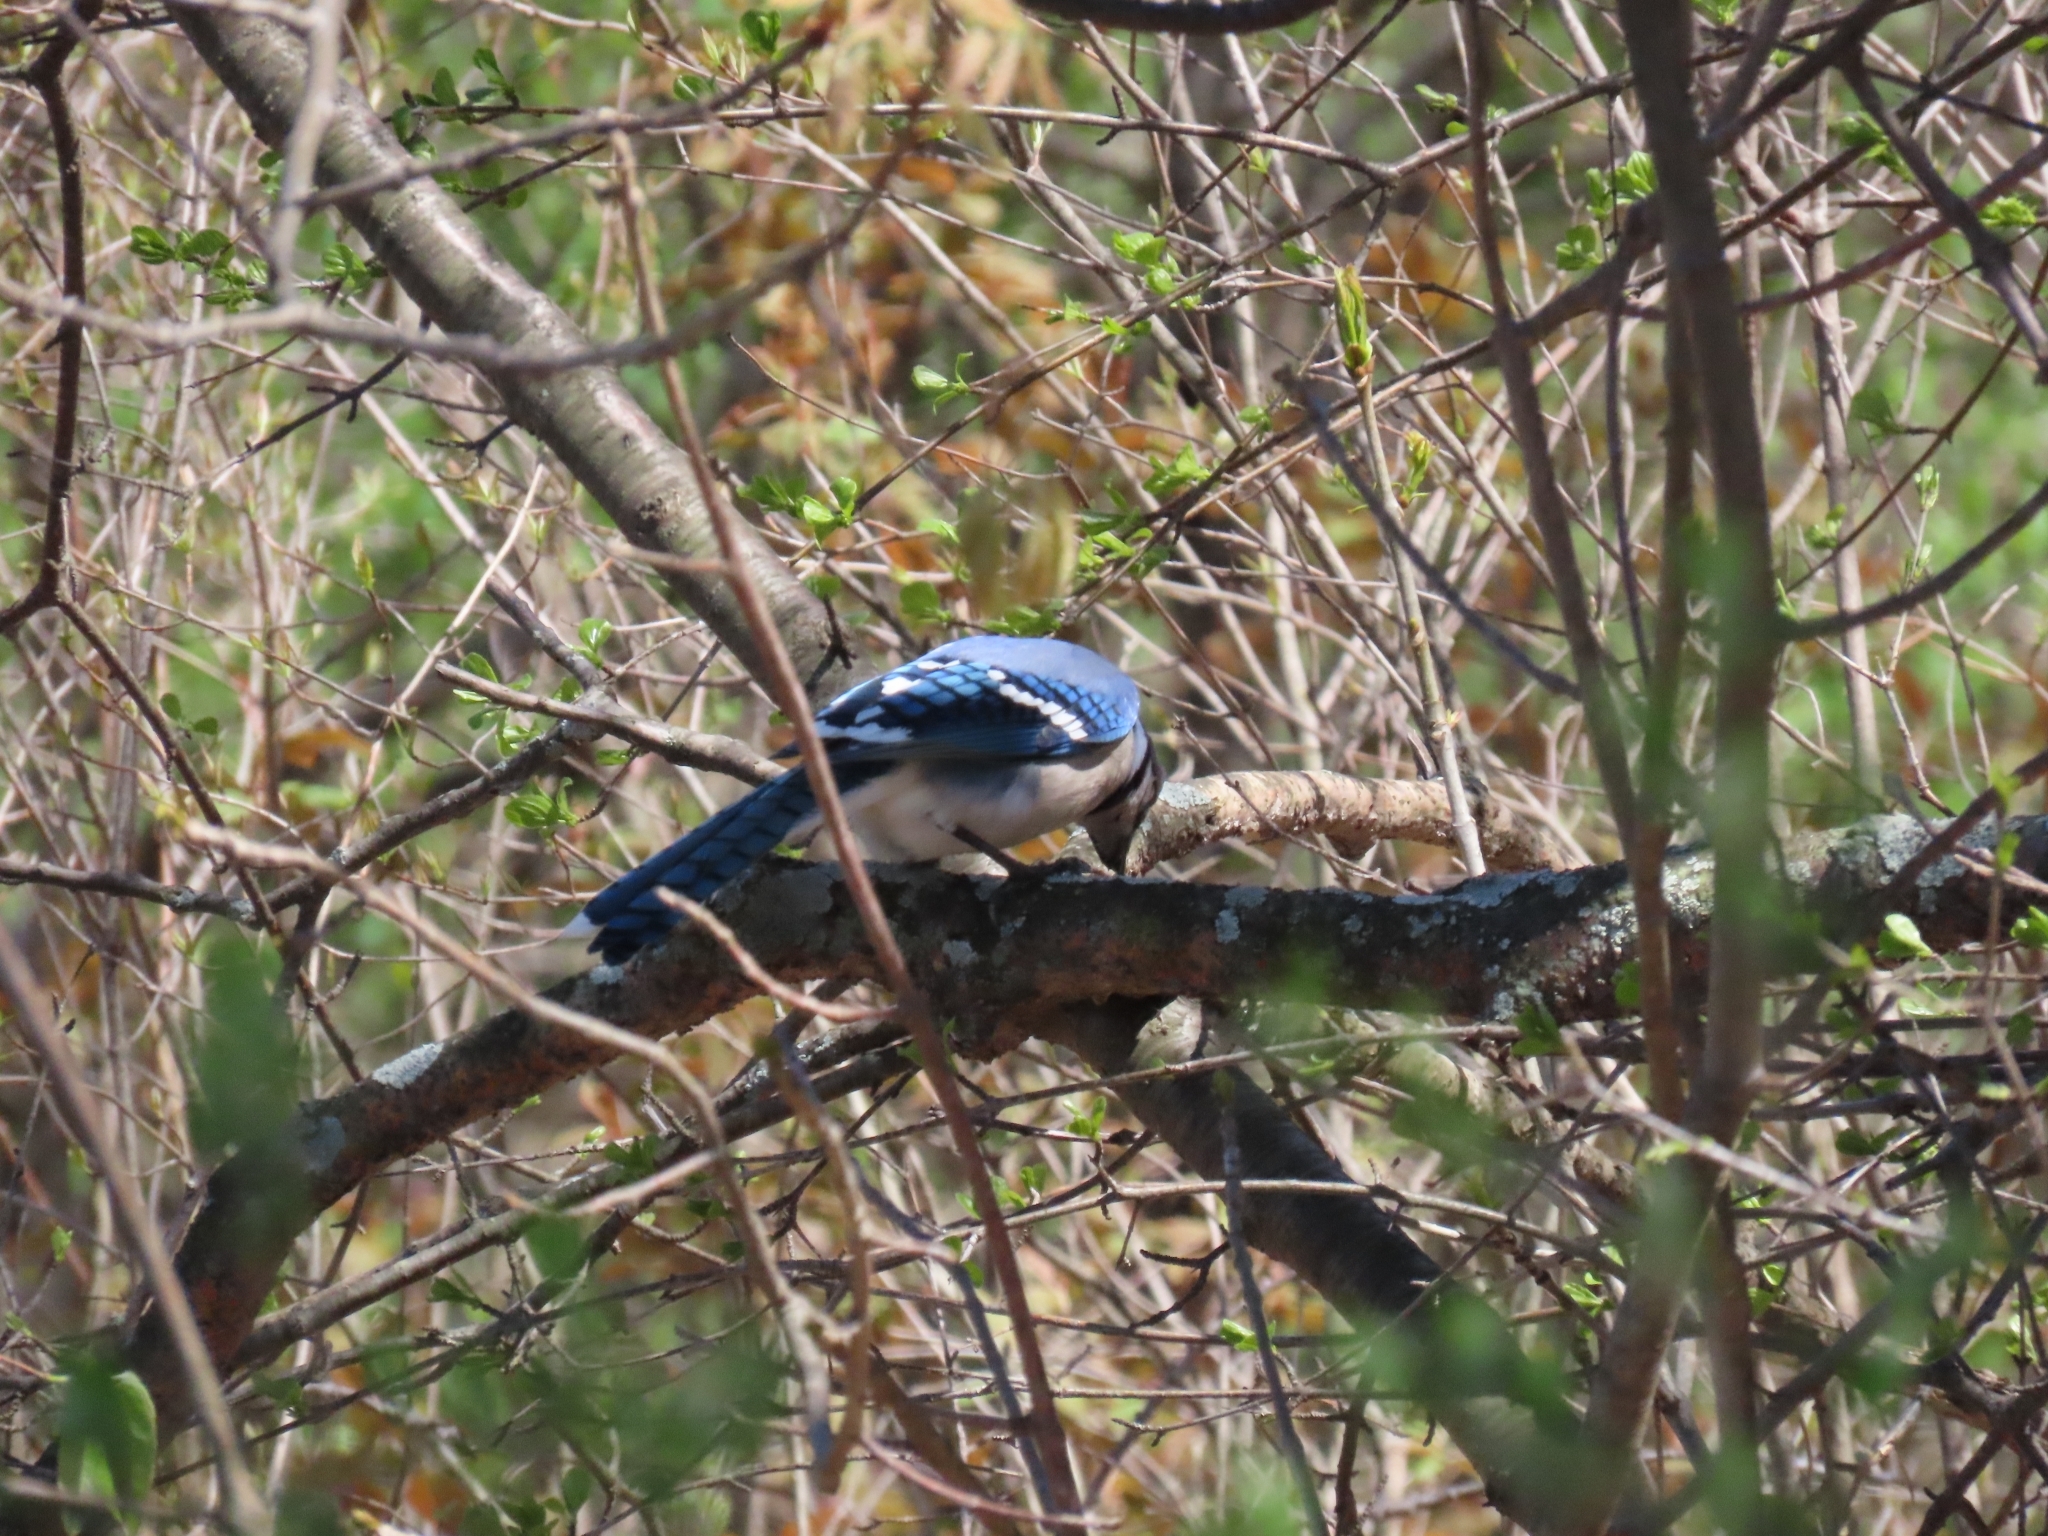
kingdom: Animalia
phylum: Chordata
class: Aves
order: Passeriformes
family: Corvidae
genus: Cyanocitta
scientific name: Cyanocitta cristata
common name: Blue jay
